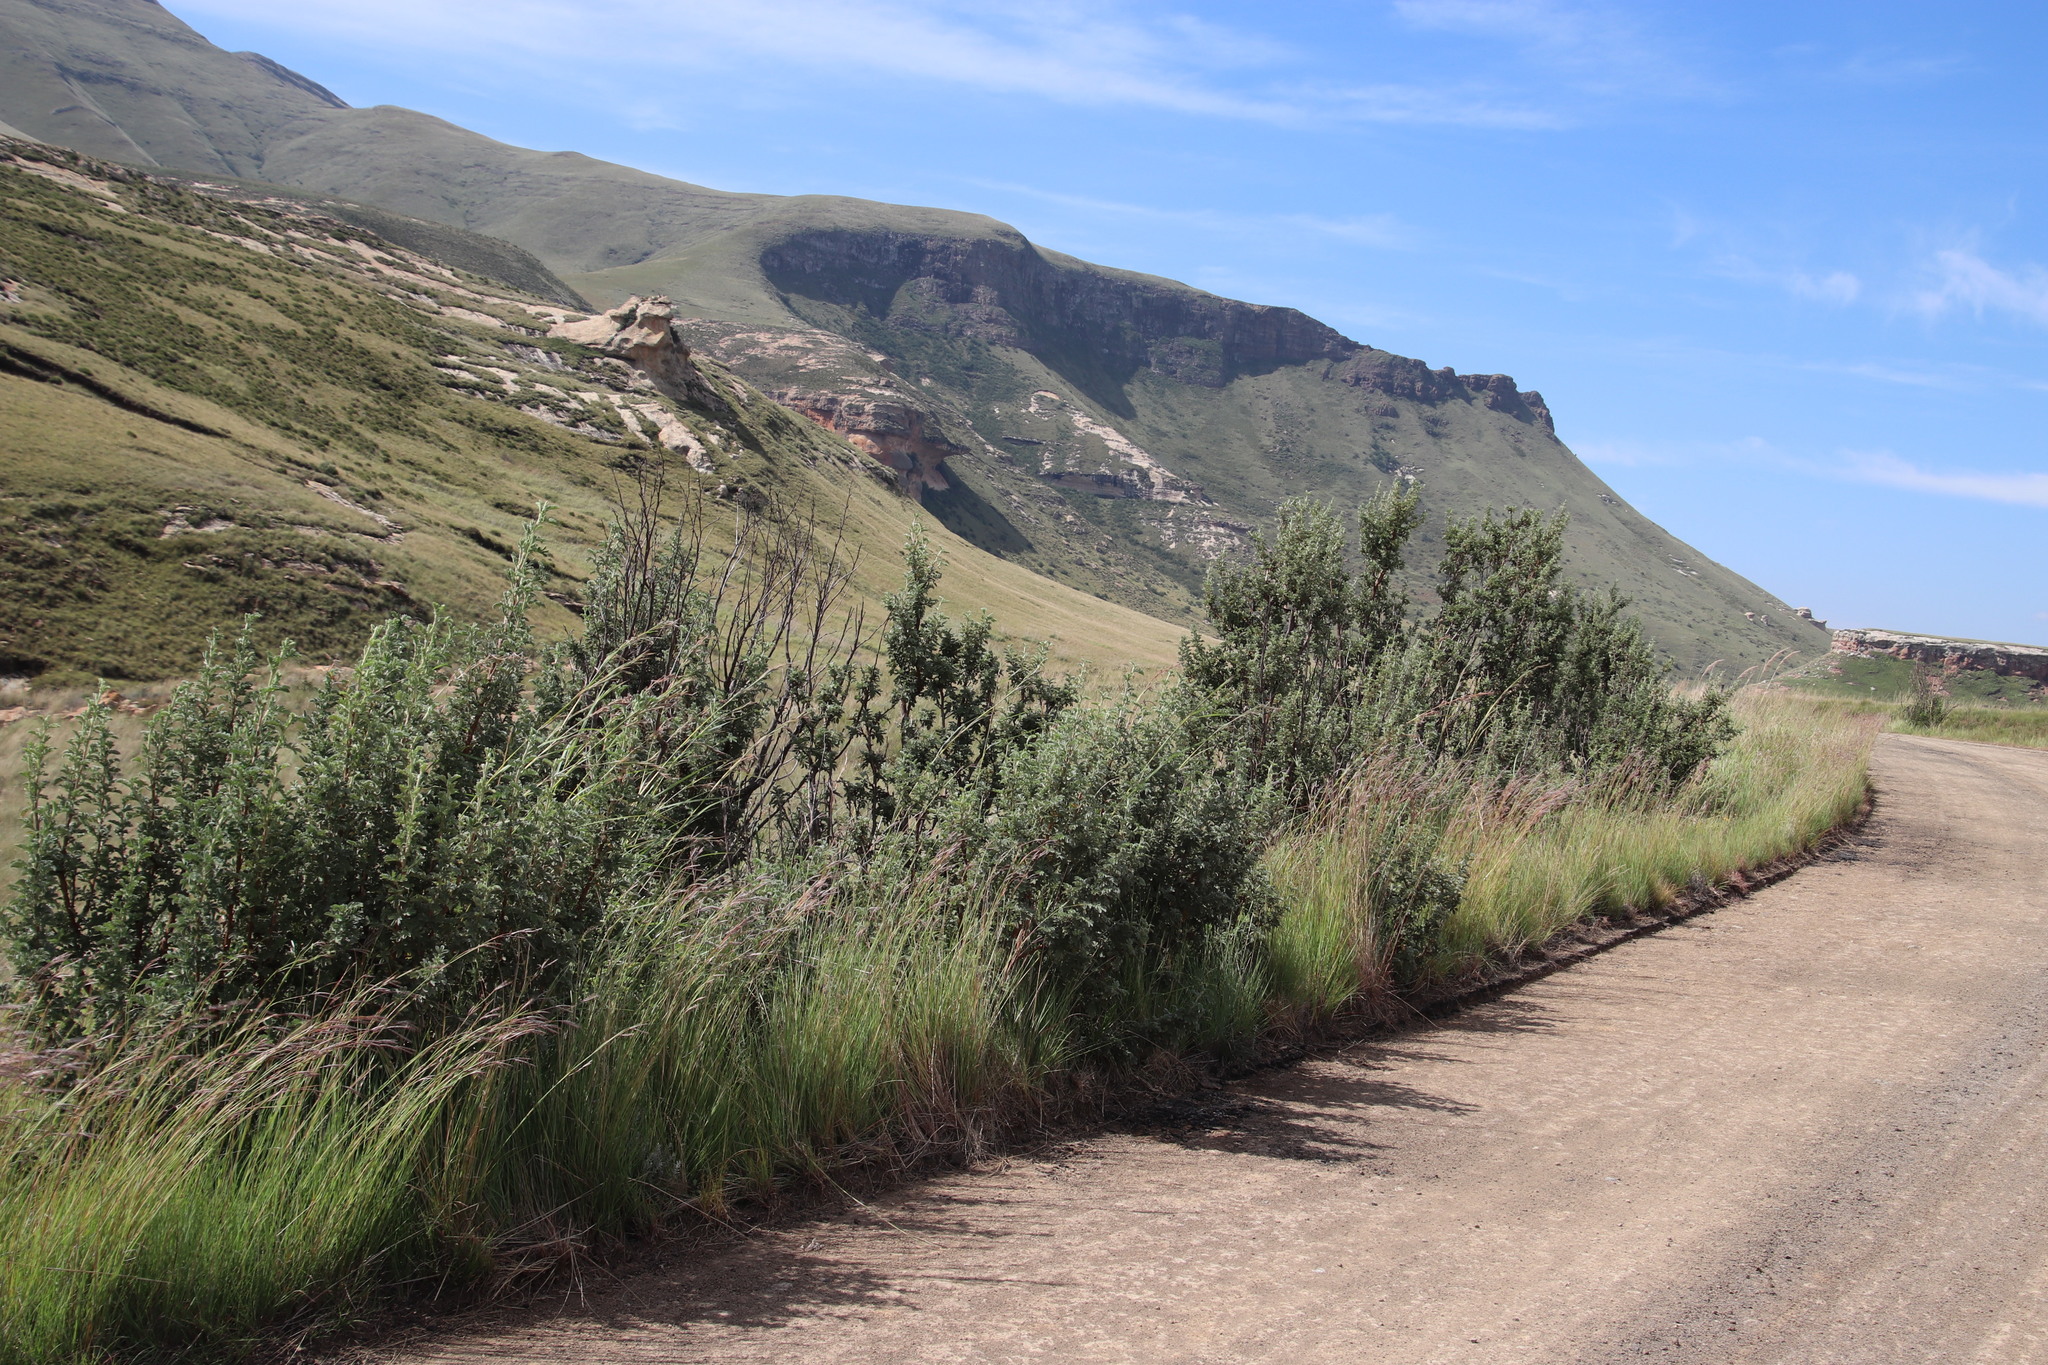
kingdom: Plantae
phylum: Tracheophyta
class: Magnoliopsida
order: Rosales
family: Rosaceae
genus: Leucosidea
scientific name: Leucosidea sericea
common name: Oldwood
